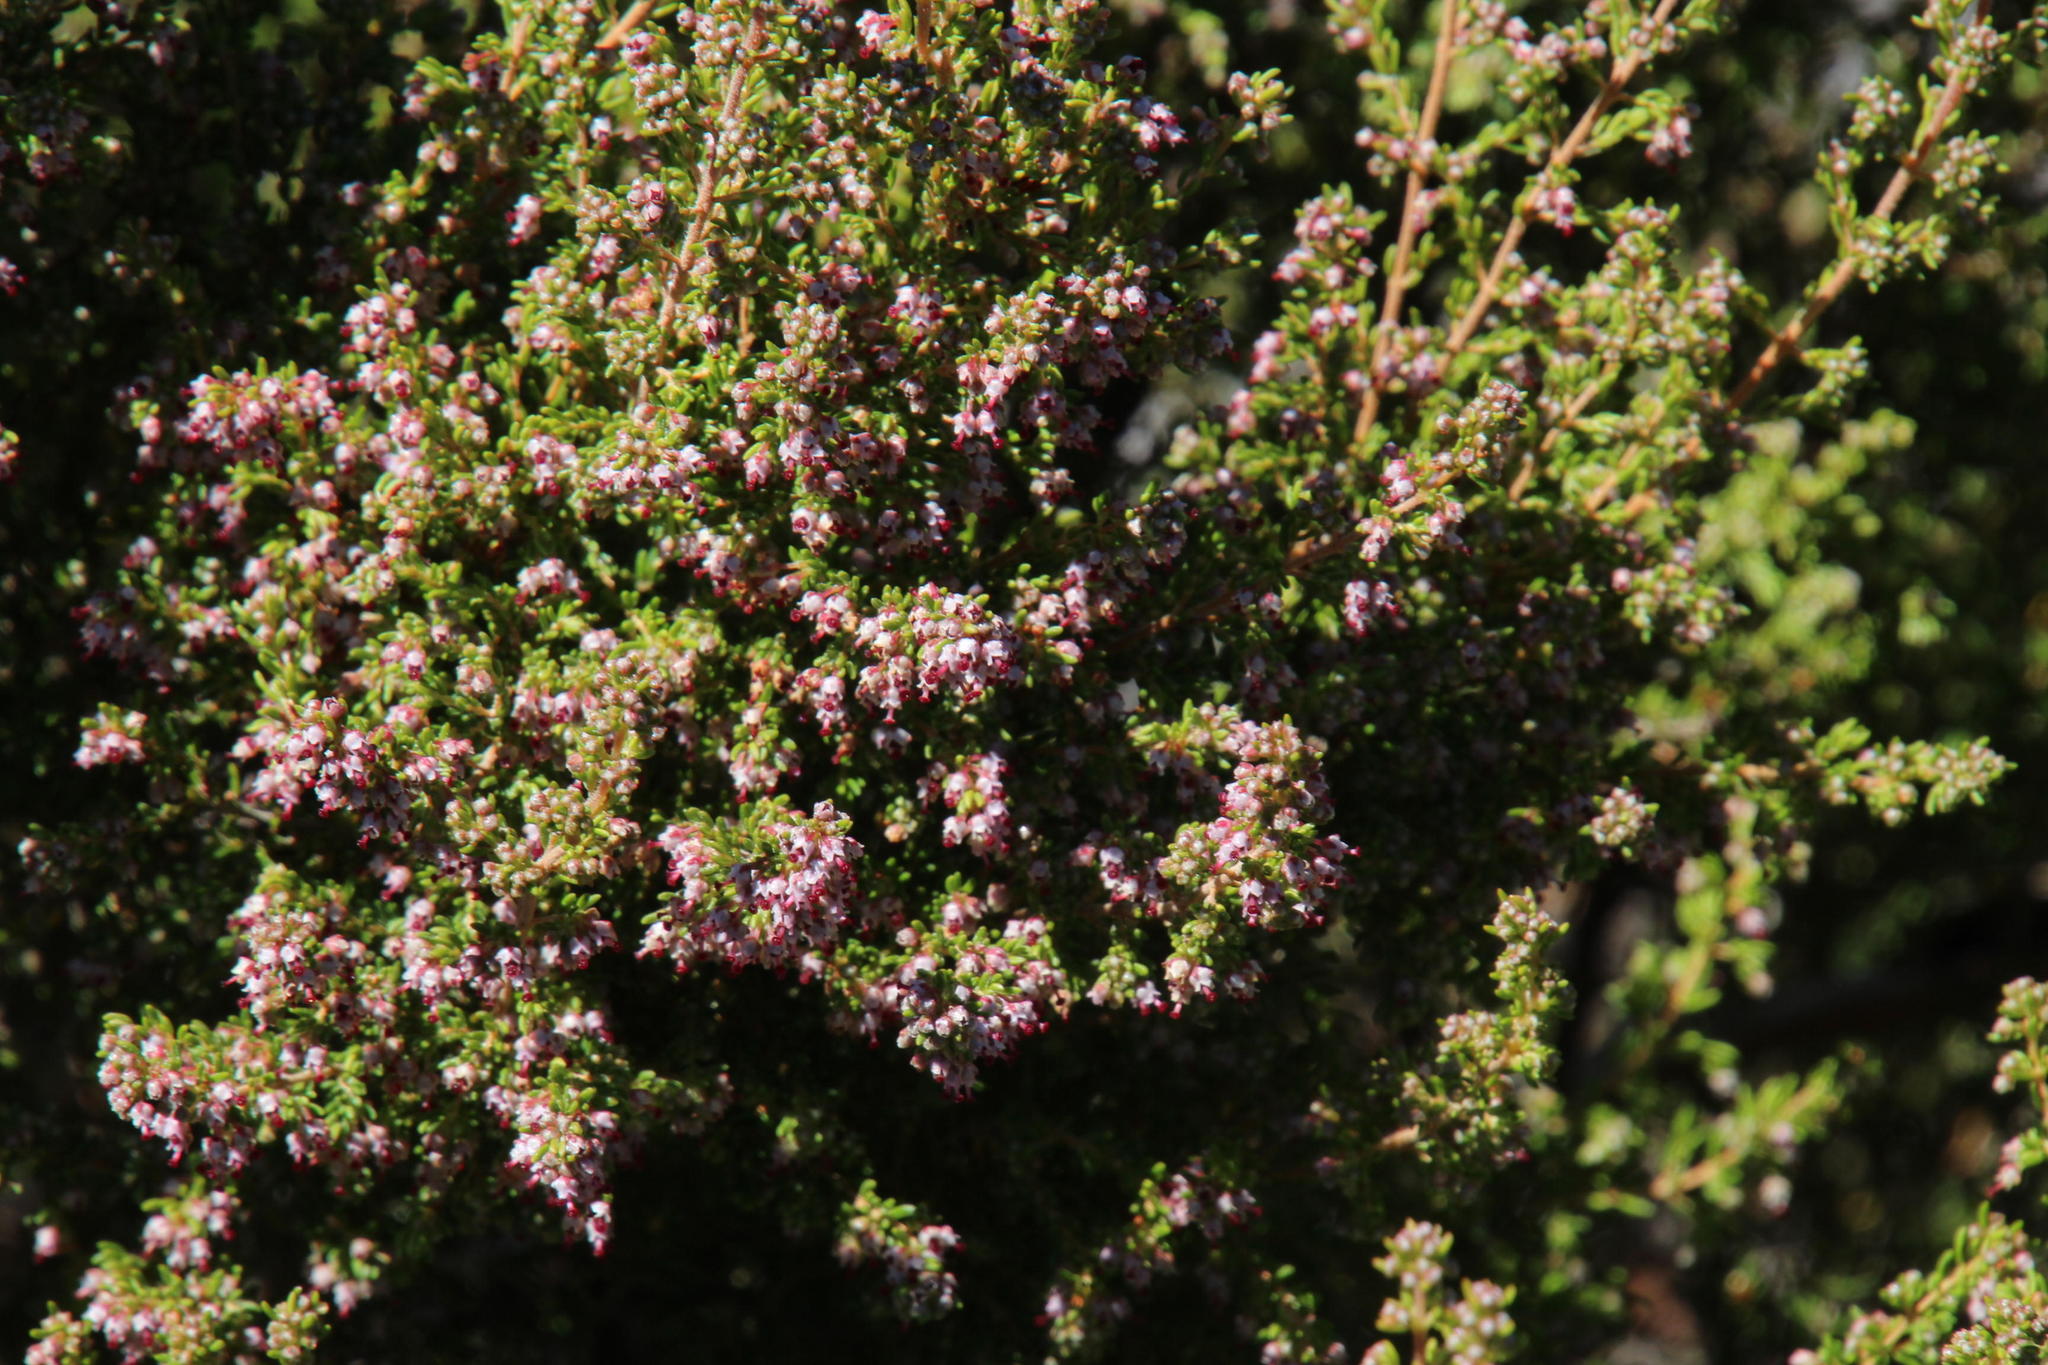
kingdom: Plantae
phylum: Tracheophyta
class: Magnoliopsida
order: Ericales
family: Ericaceae
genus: Erica
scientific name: Erica hispidula
